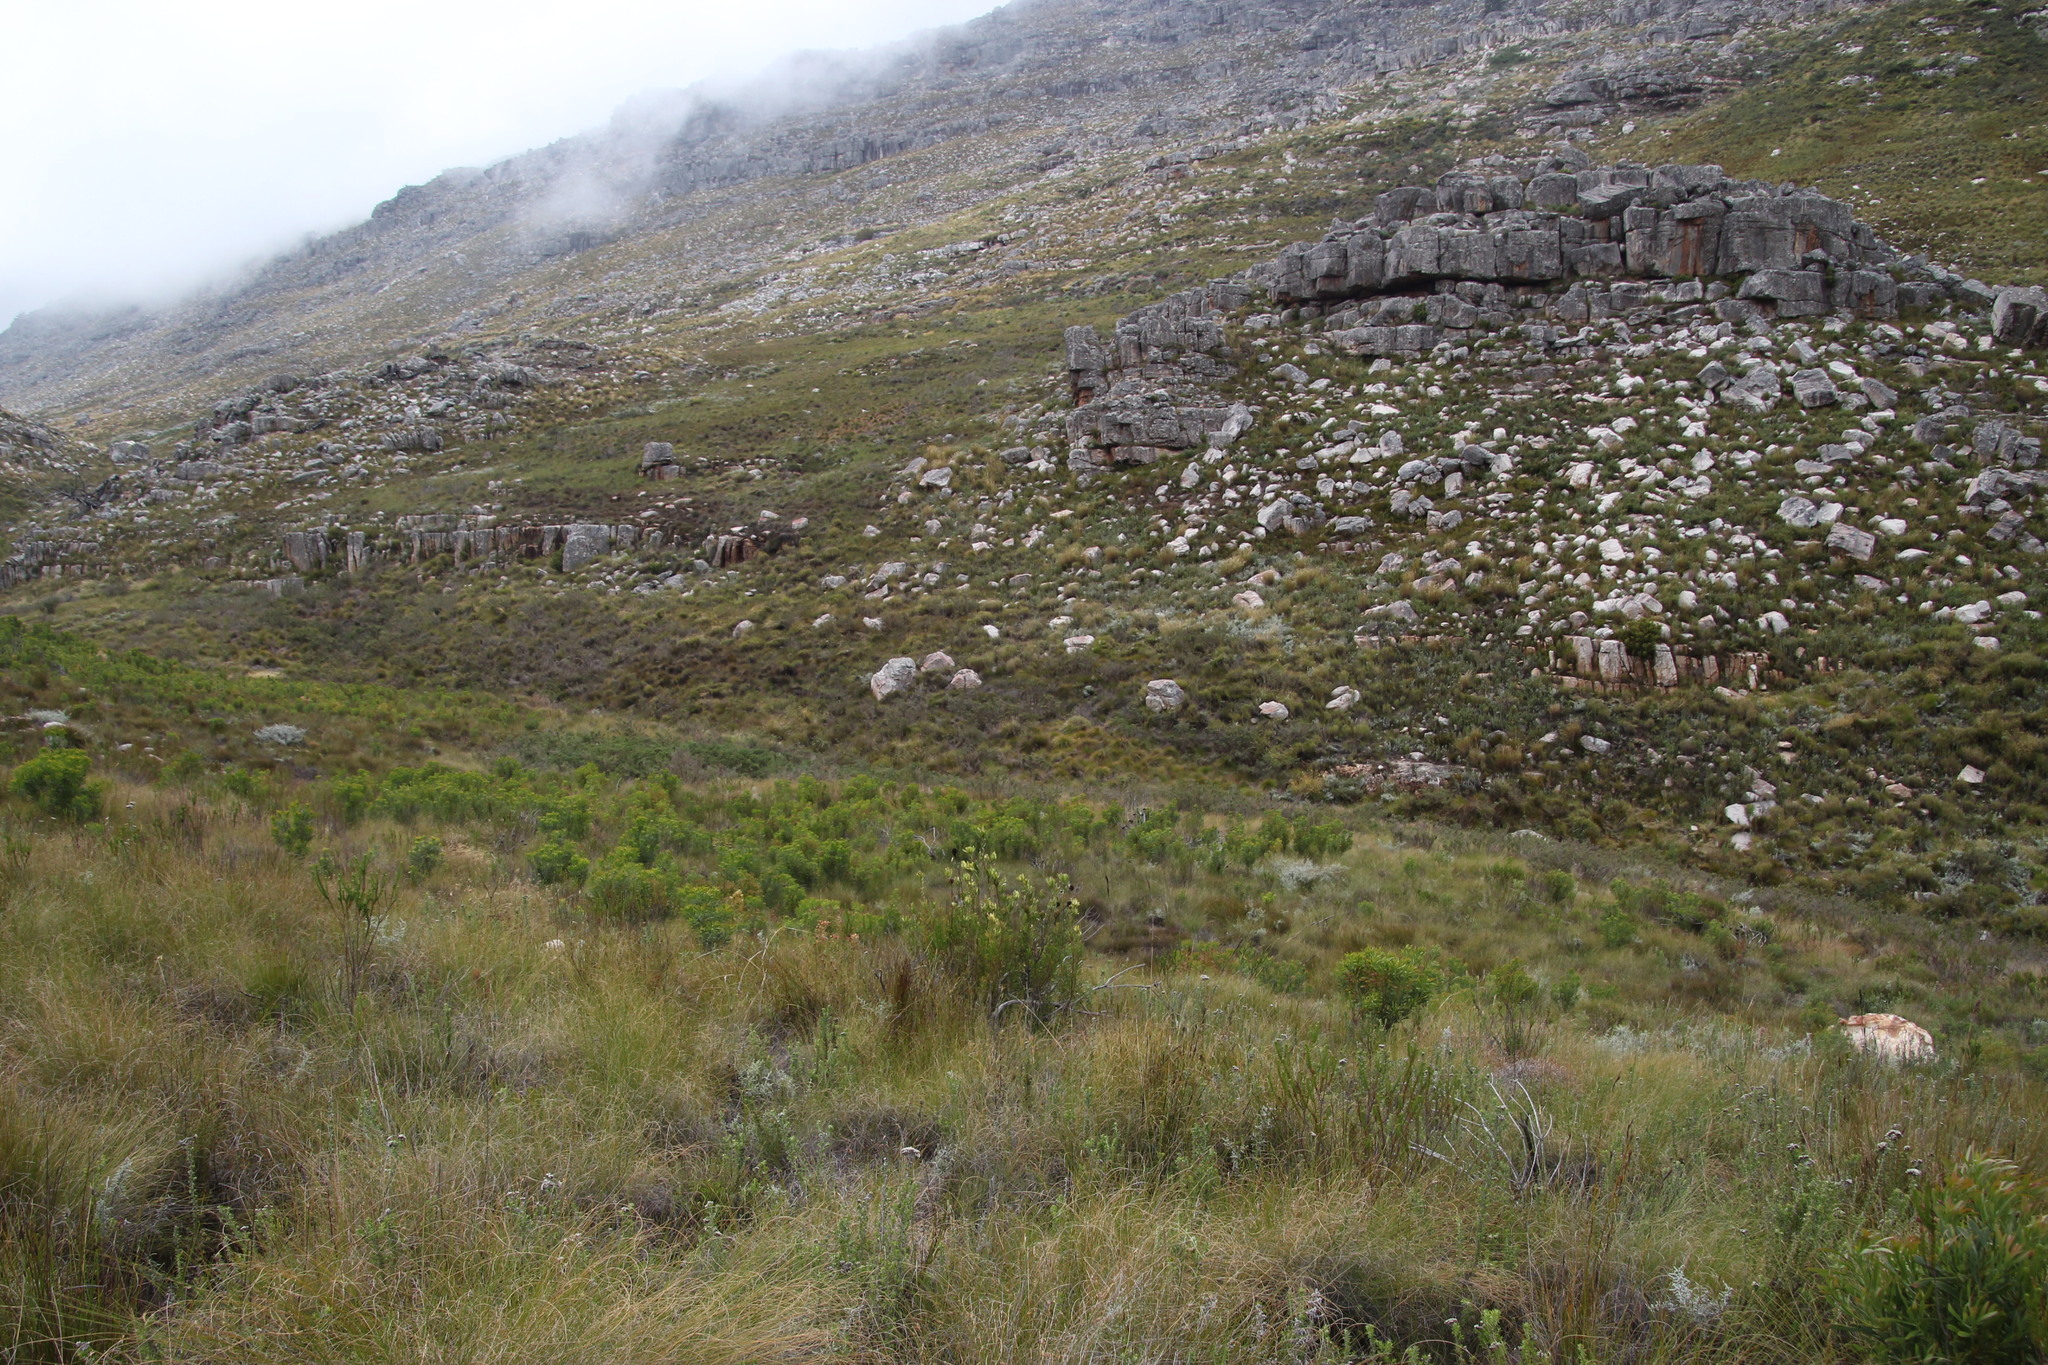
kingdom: Plantae
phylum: Tracheophyta
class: Magnoliopsida
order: Proteales
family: Proteaceae
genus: Leucadendron
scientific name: Leucadendron spissifolium
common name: Spear-leaf conebush
